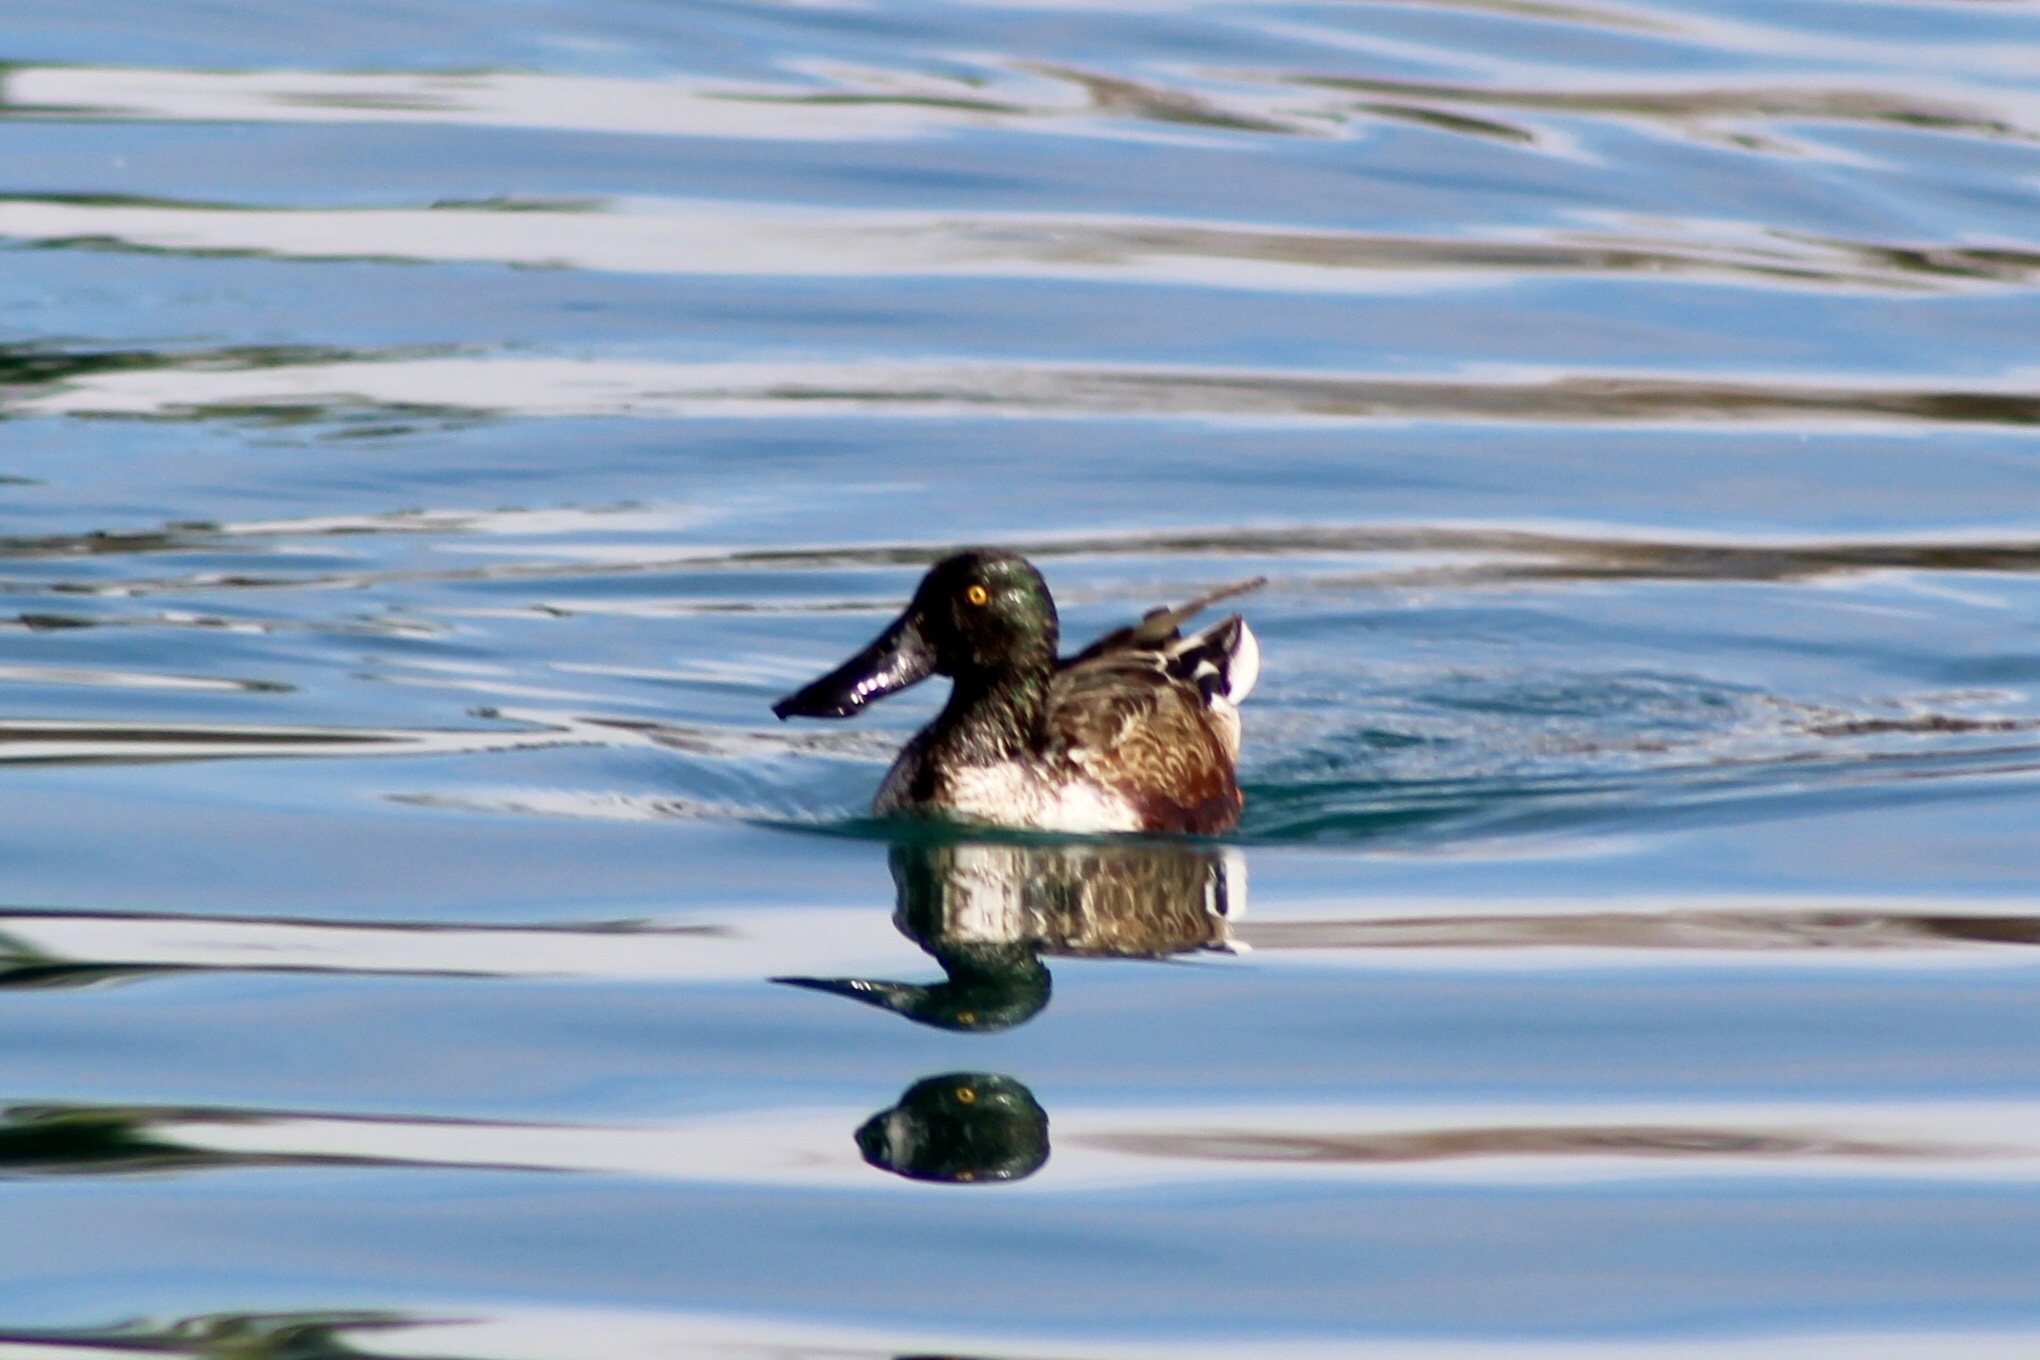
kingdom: Animalia
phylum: Chordata
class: Aves
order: Anseriformes
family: Anatidae
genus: Spatula
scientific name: Spatula clypeata
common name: Northern shoveler
